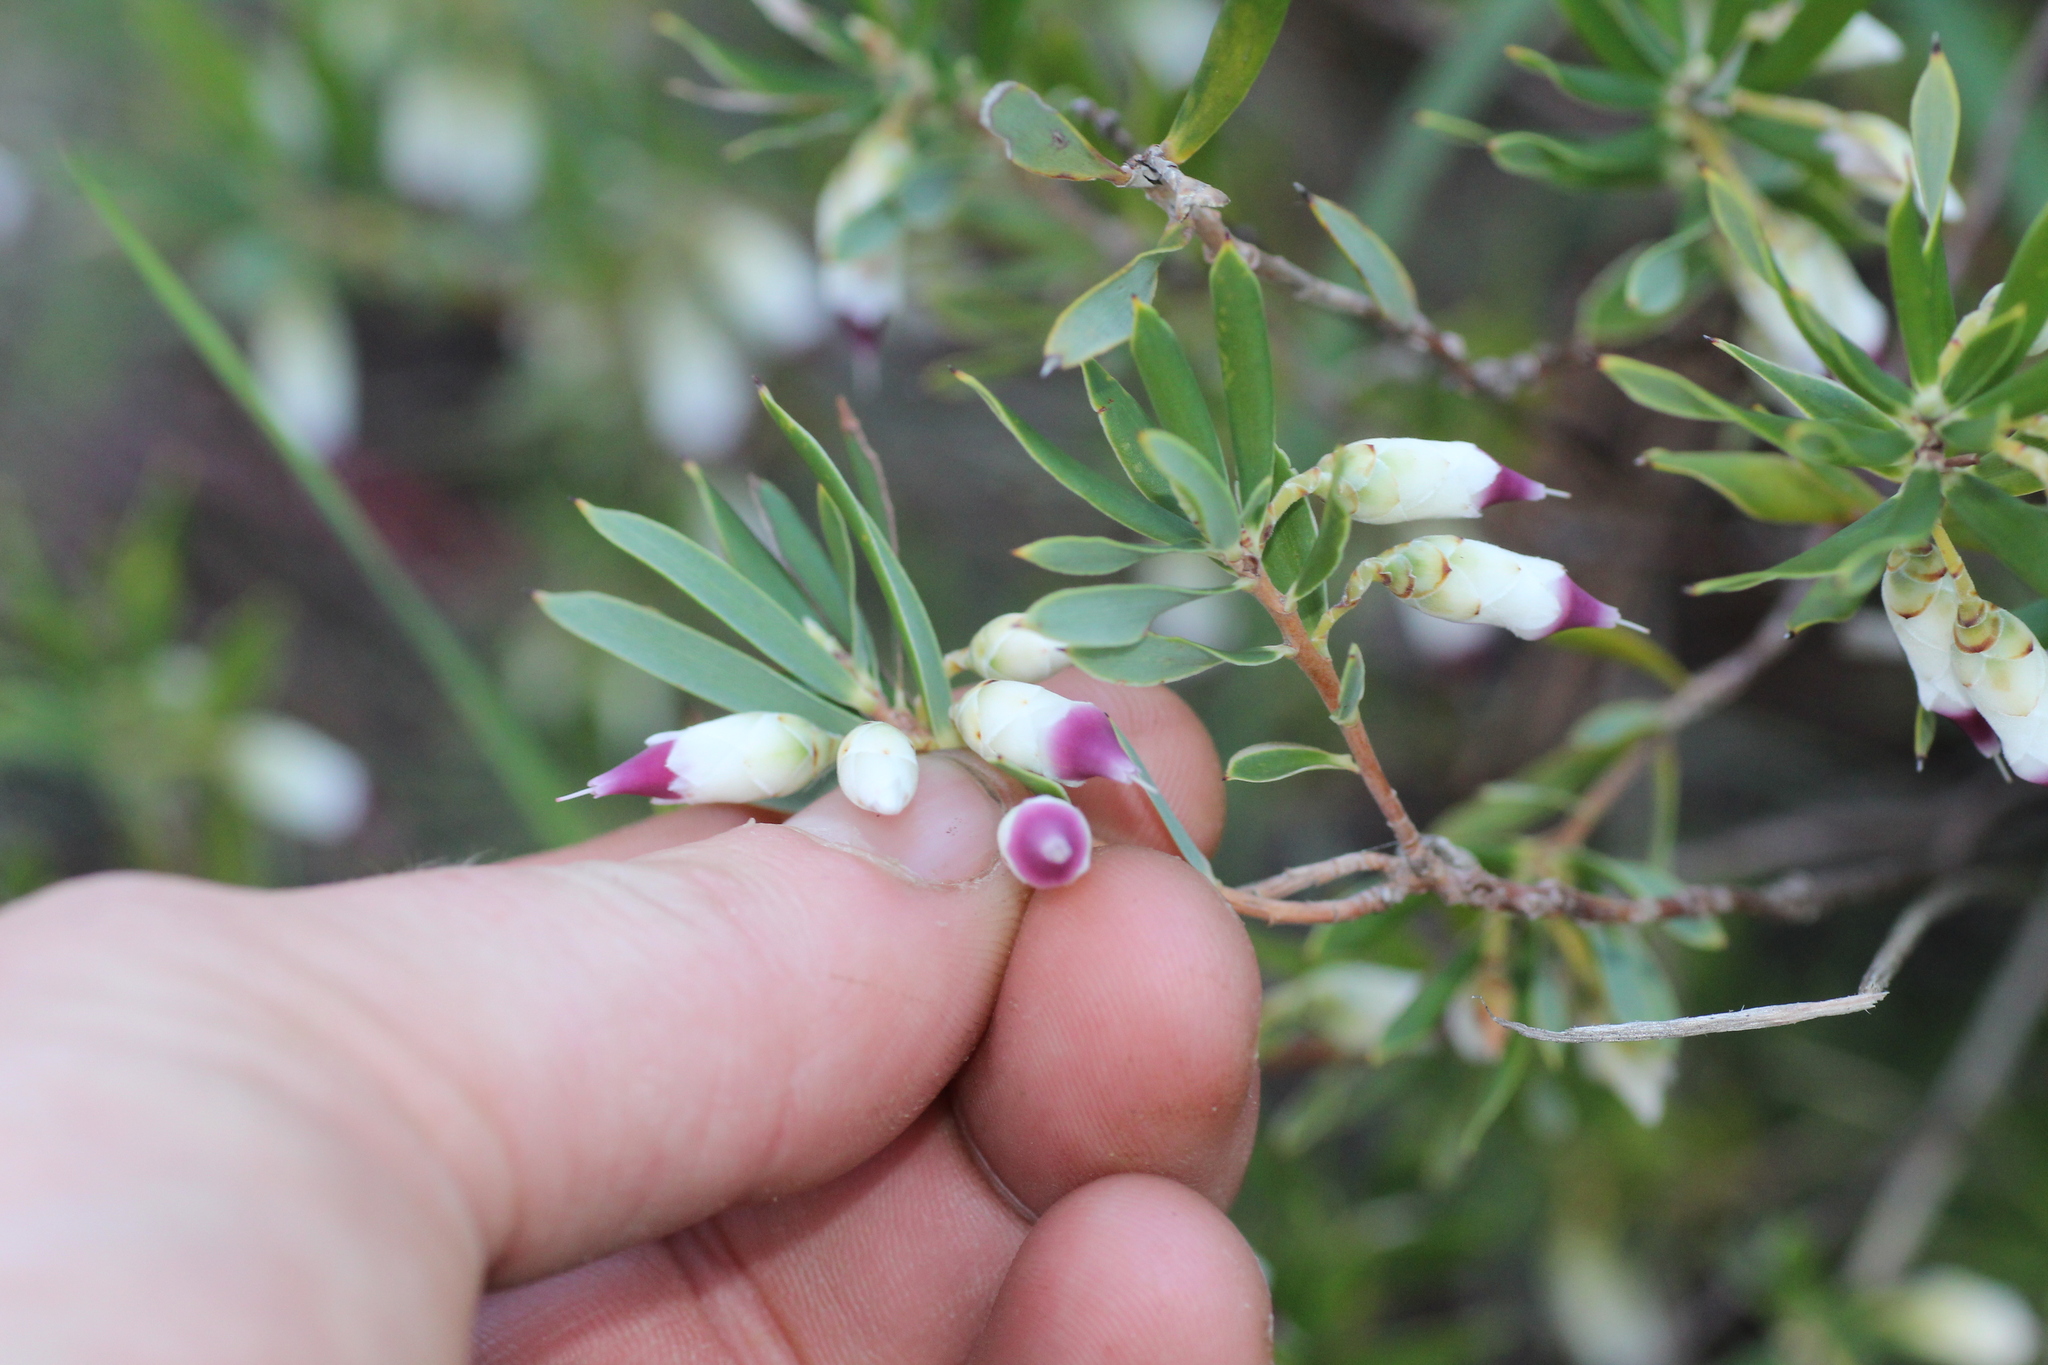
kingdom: Plantae
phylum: Tracheophyta
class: Magnoliopsida
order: Ericales
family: Ericaceae
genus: Conostephium
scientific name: Conostephium pendulum
